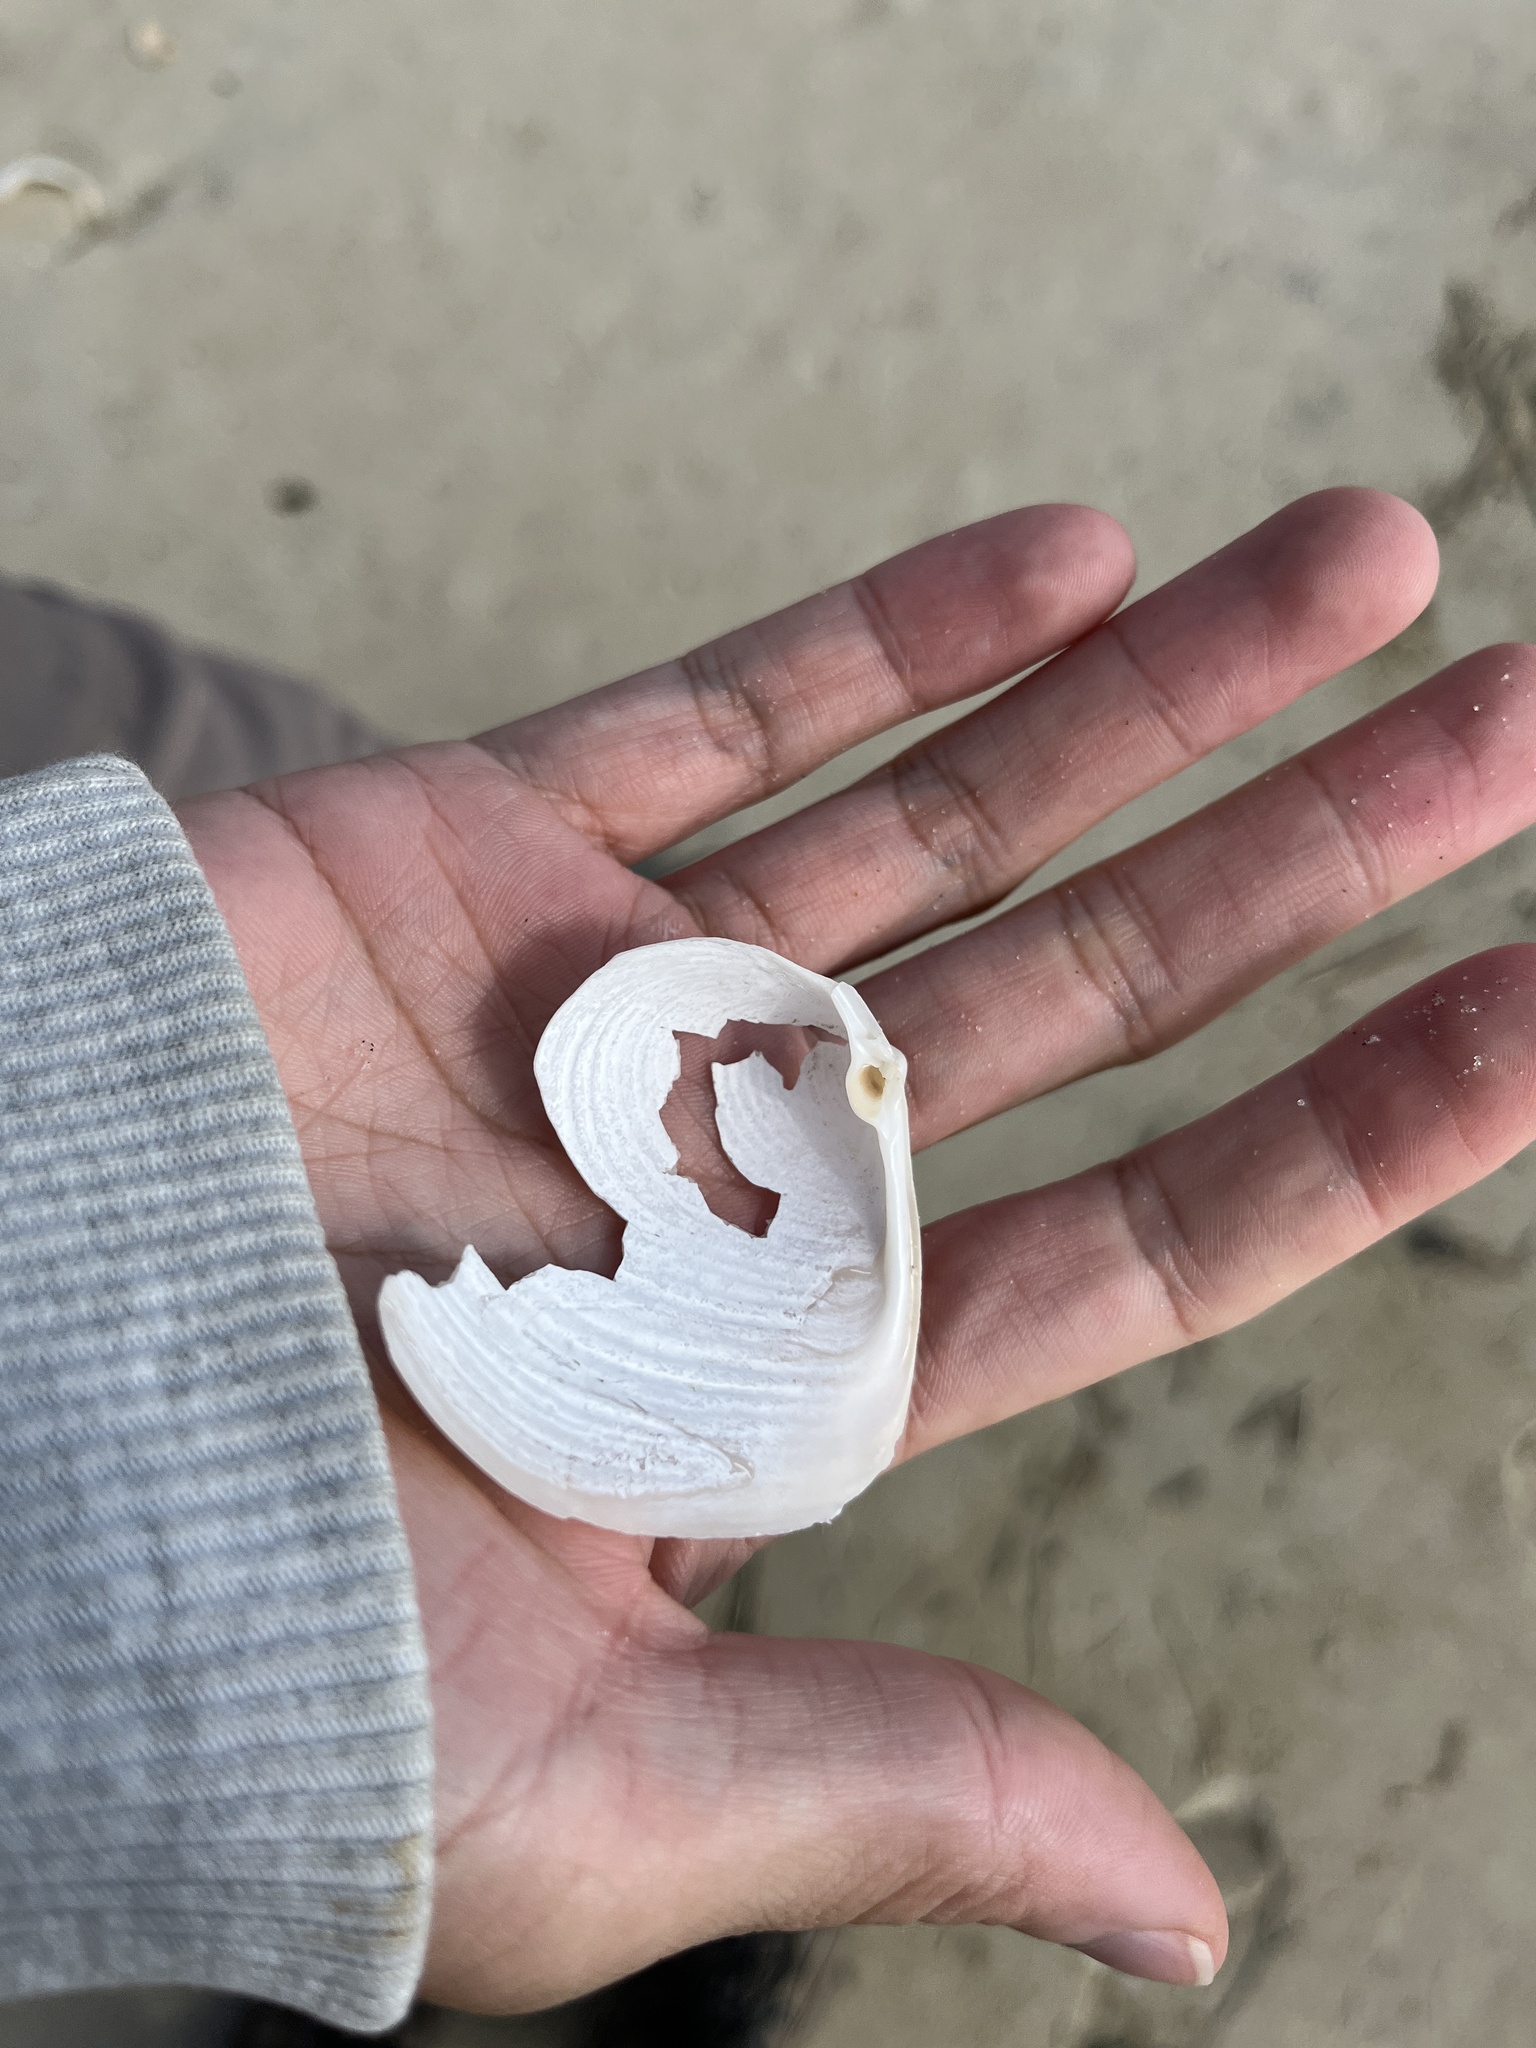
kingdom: Animalia
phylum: Mollusca
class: Bivalvia
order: Venerida
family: Anatinellidae
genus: Raeta
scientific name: Raeta plicatella
